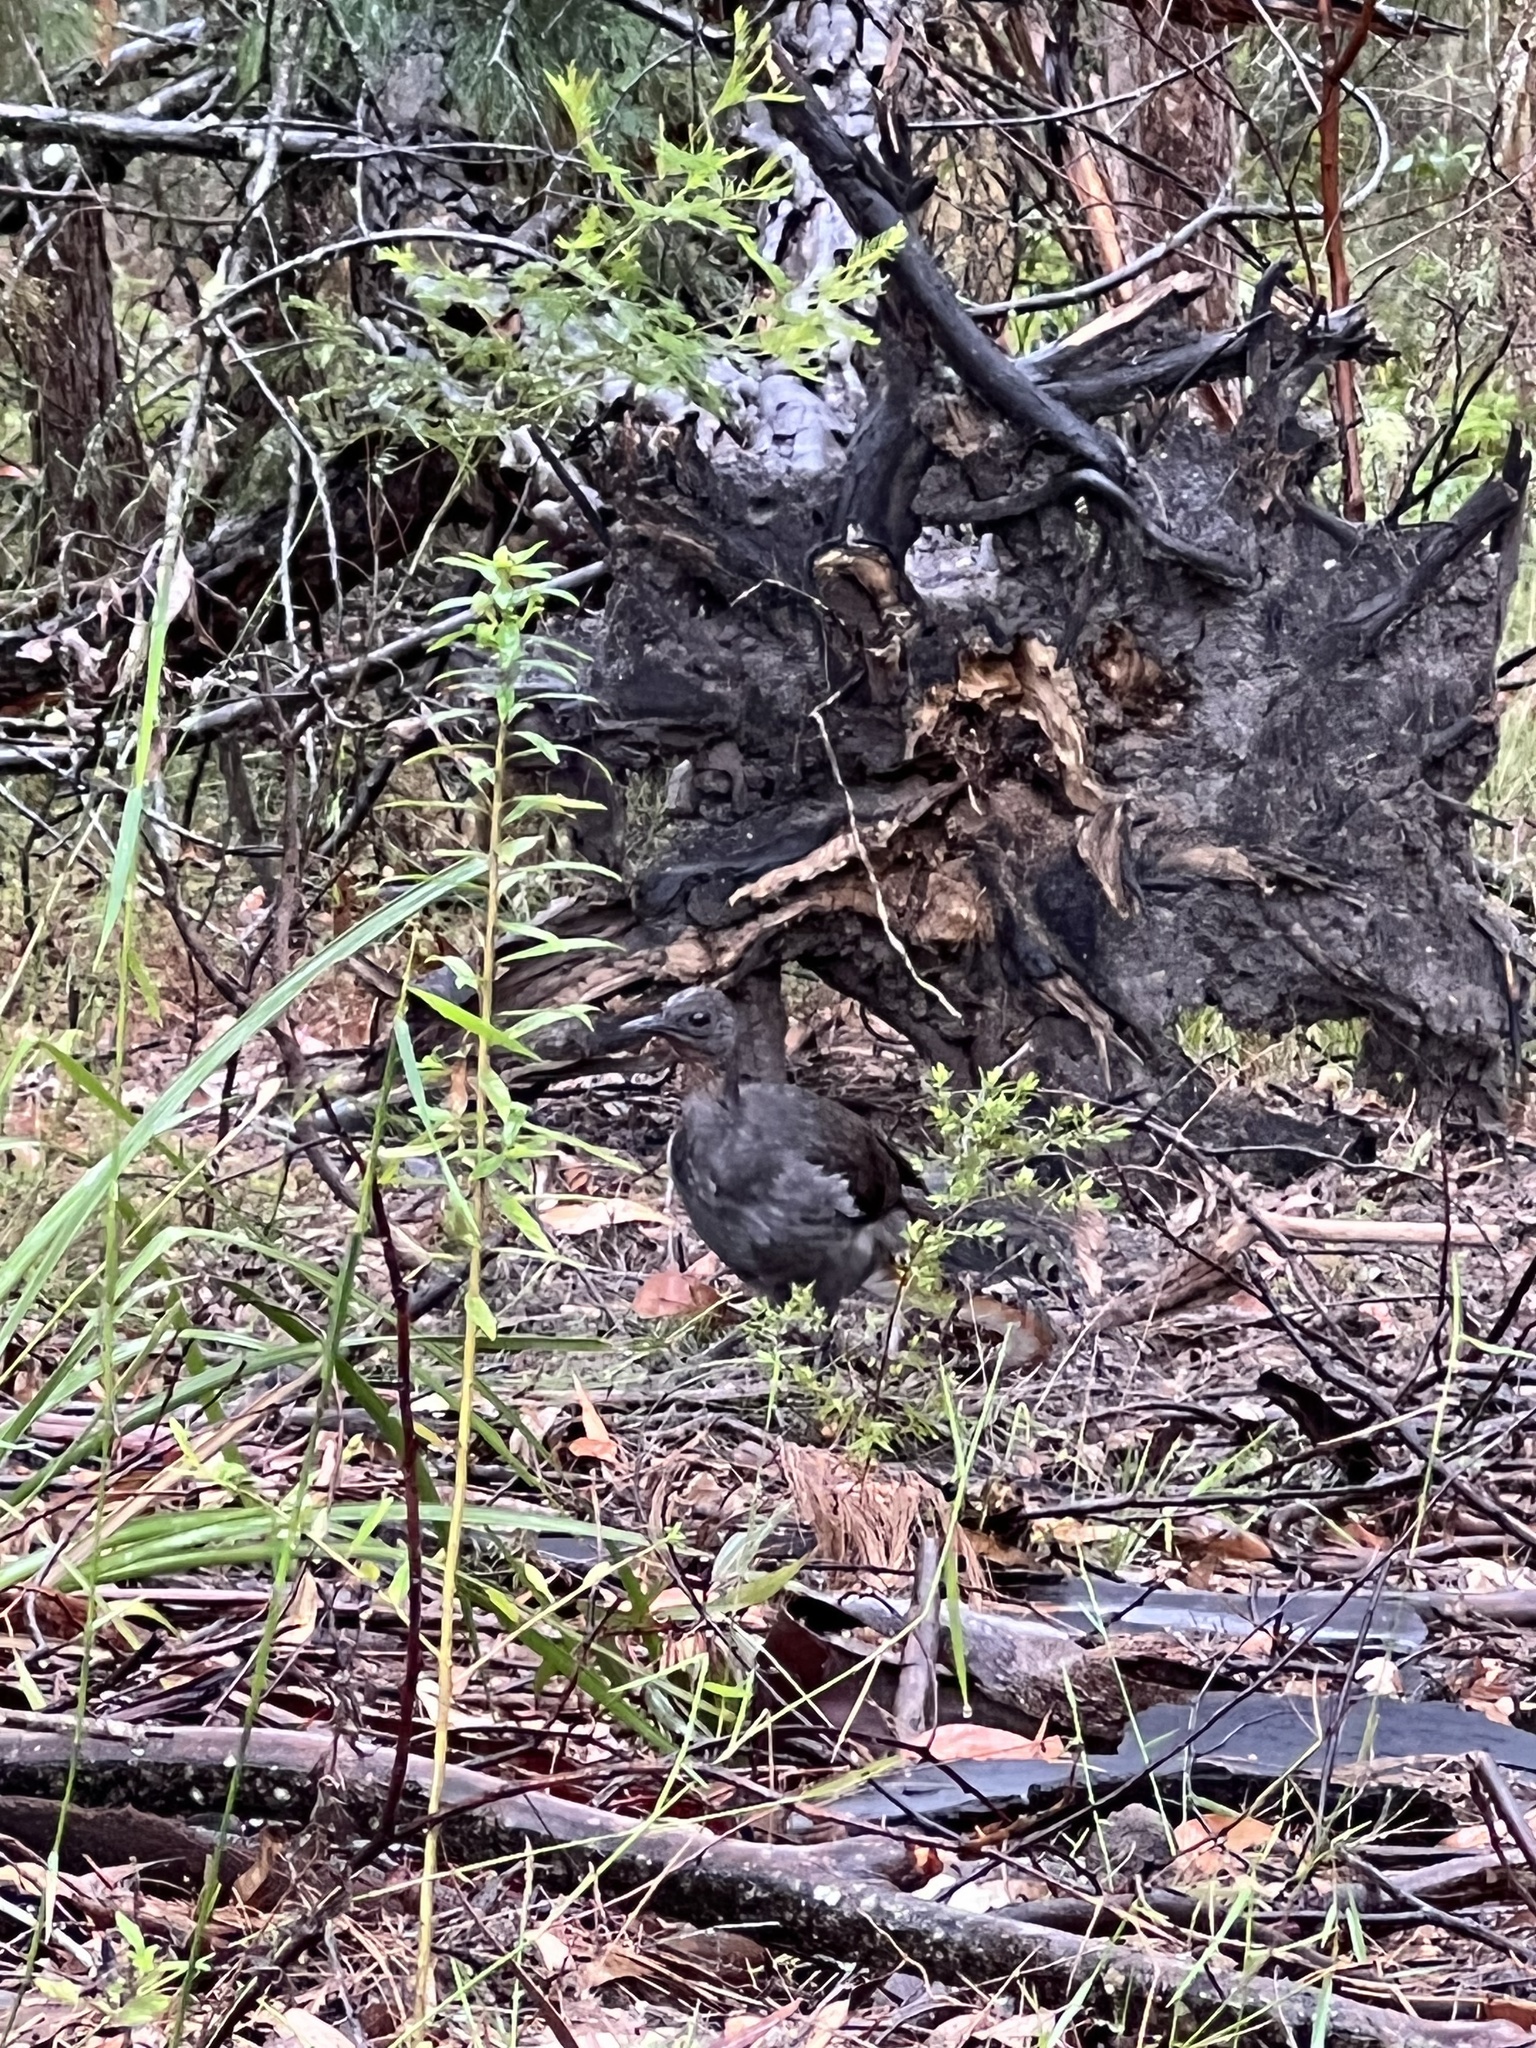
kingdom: Animalia
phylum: Chordata
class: Aves
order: Passeriformes
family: Menuridae
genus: Menura
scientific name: Menura novaehollandiae
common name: Superb lyrebird
